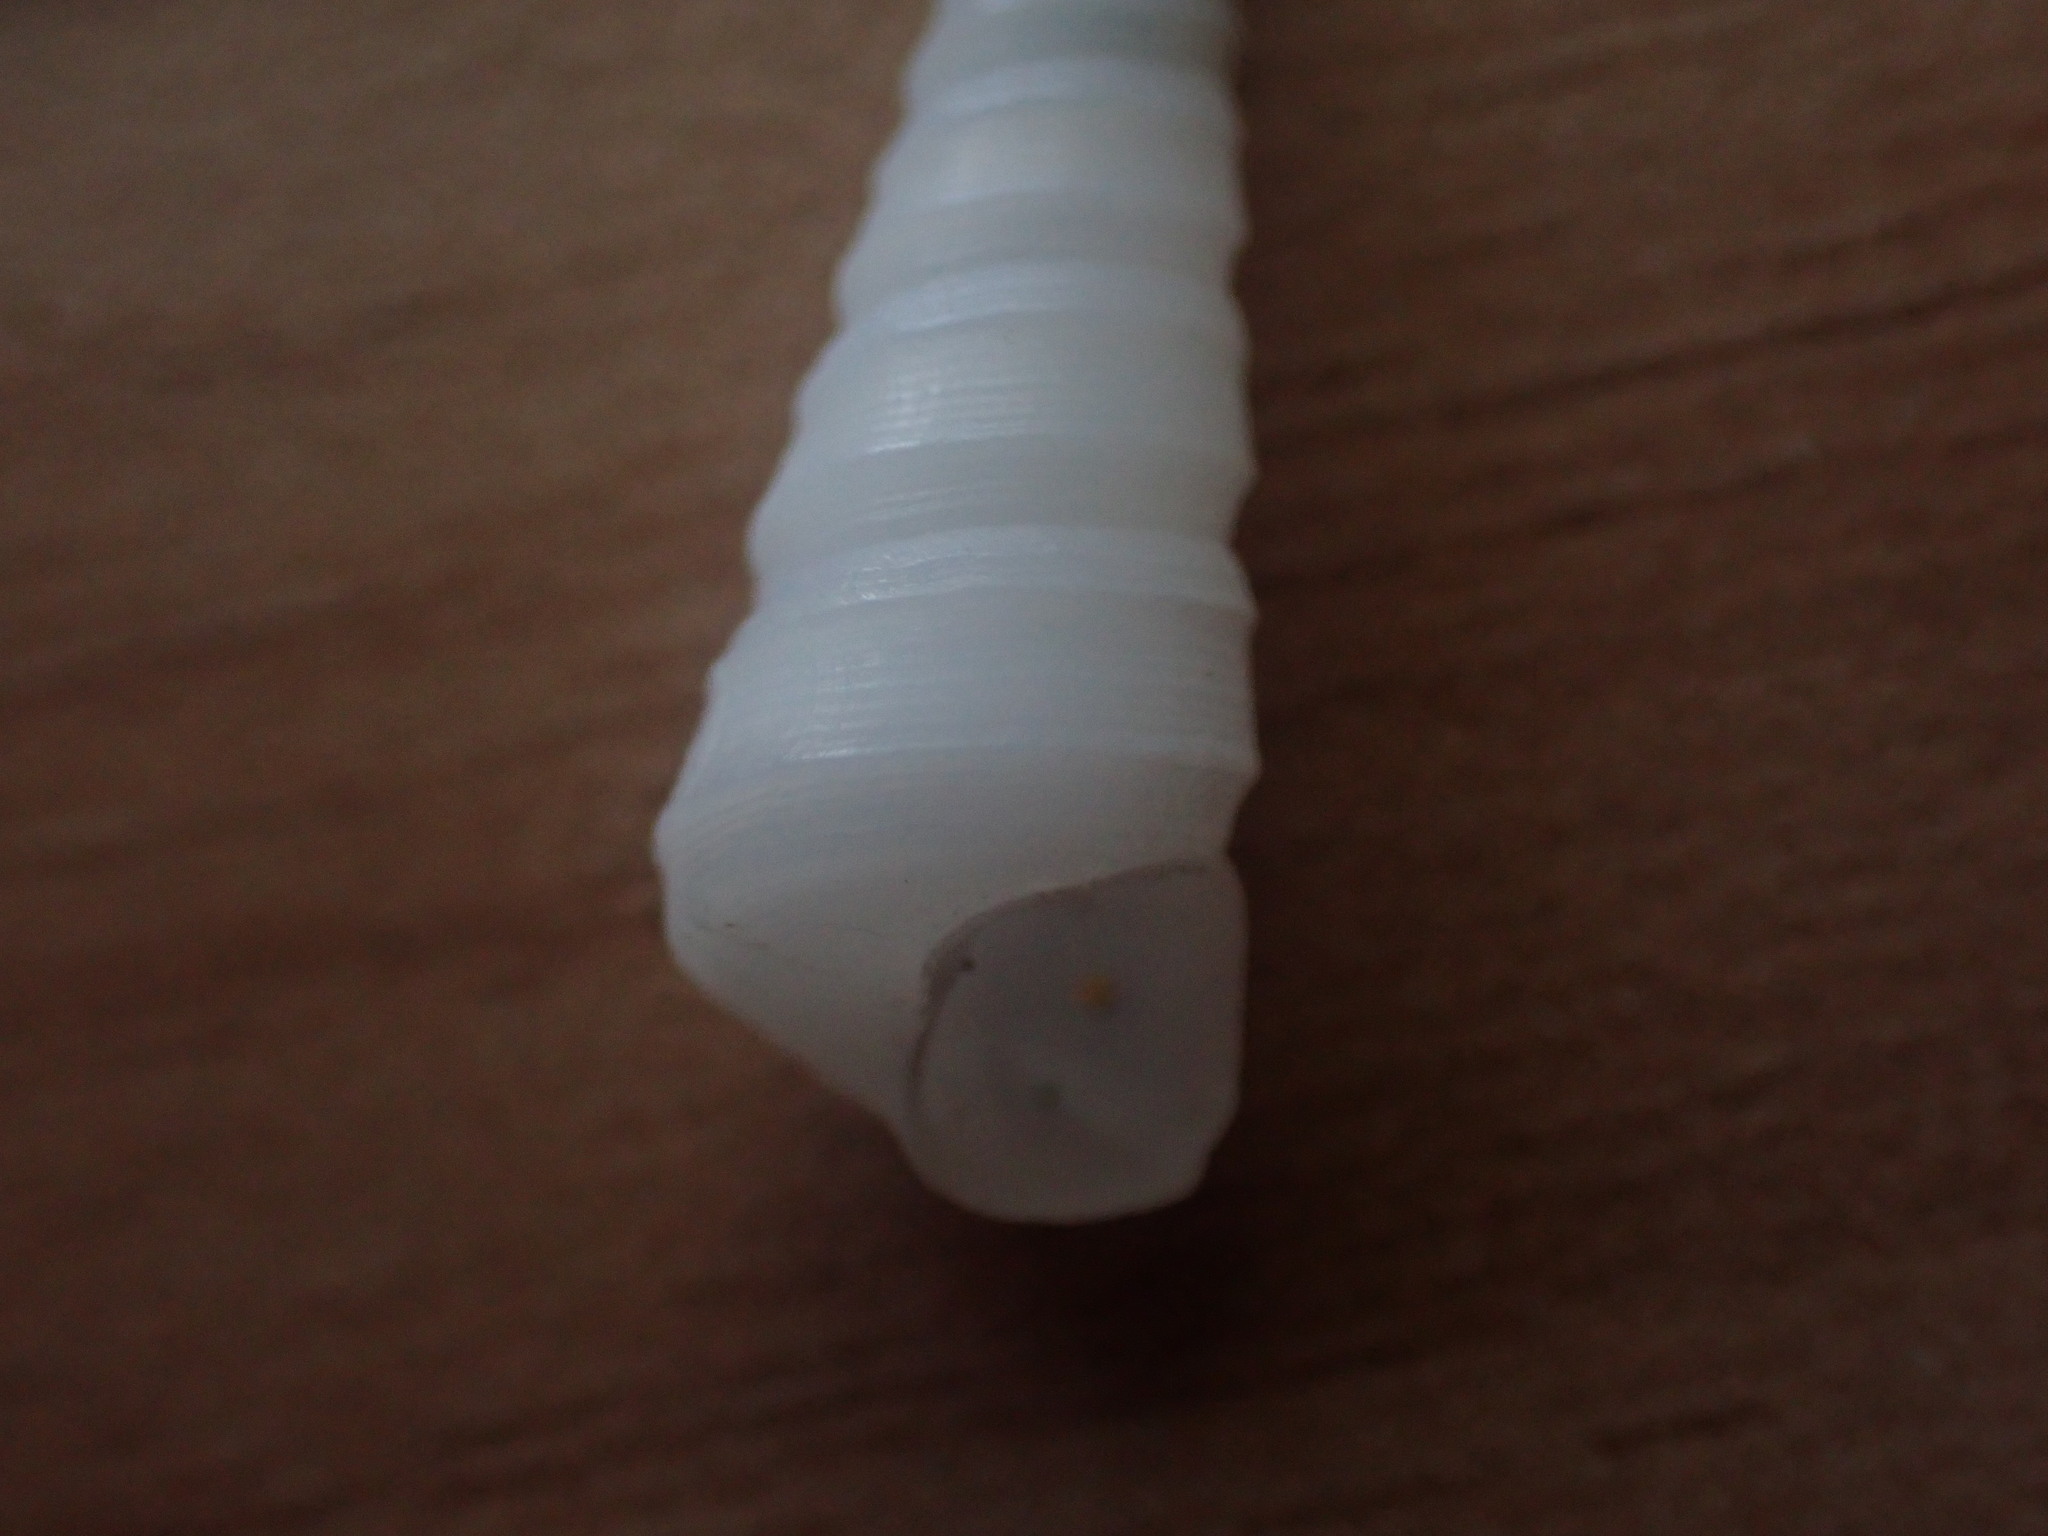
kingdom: Animalia
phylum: Mollusca
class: Gastropoda
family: Turritellidae
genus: Stiracolpus
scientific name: Stiracolpus pagoda
